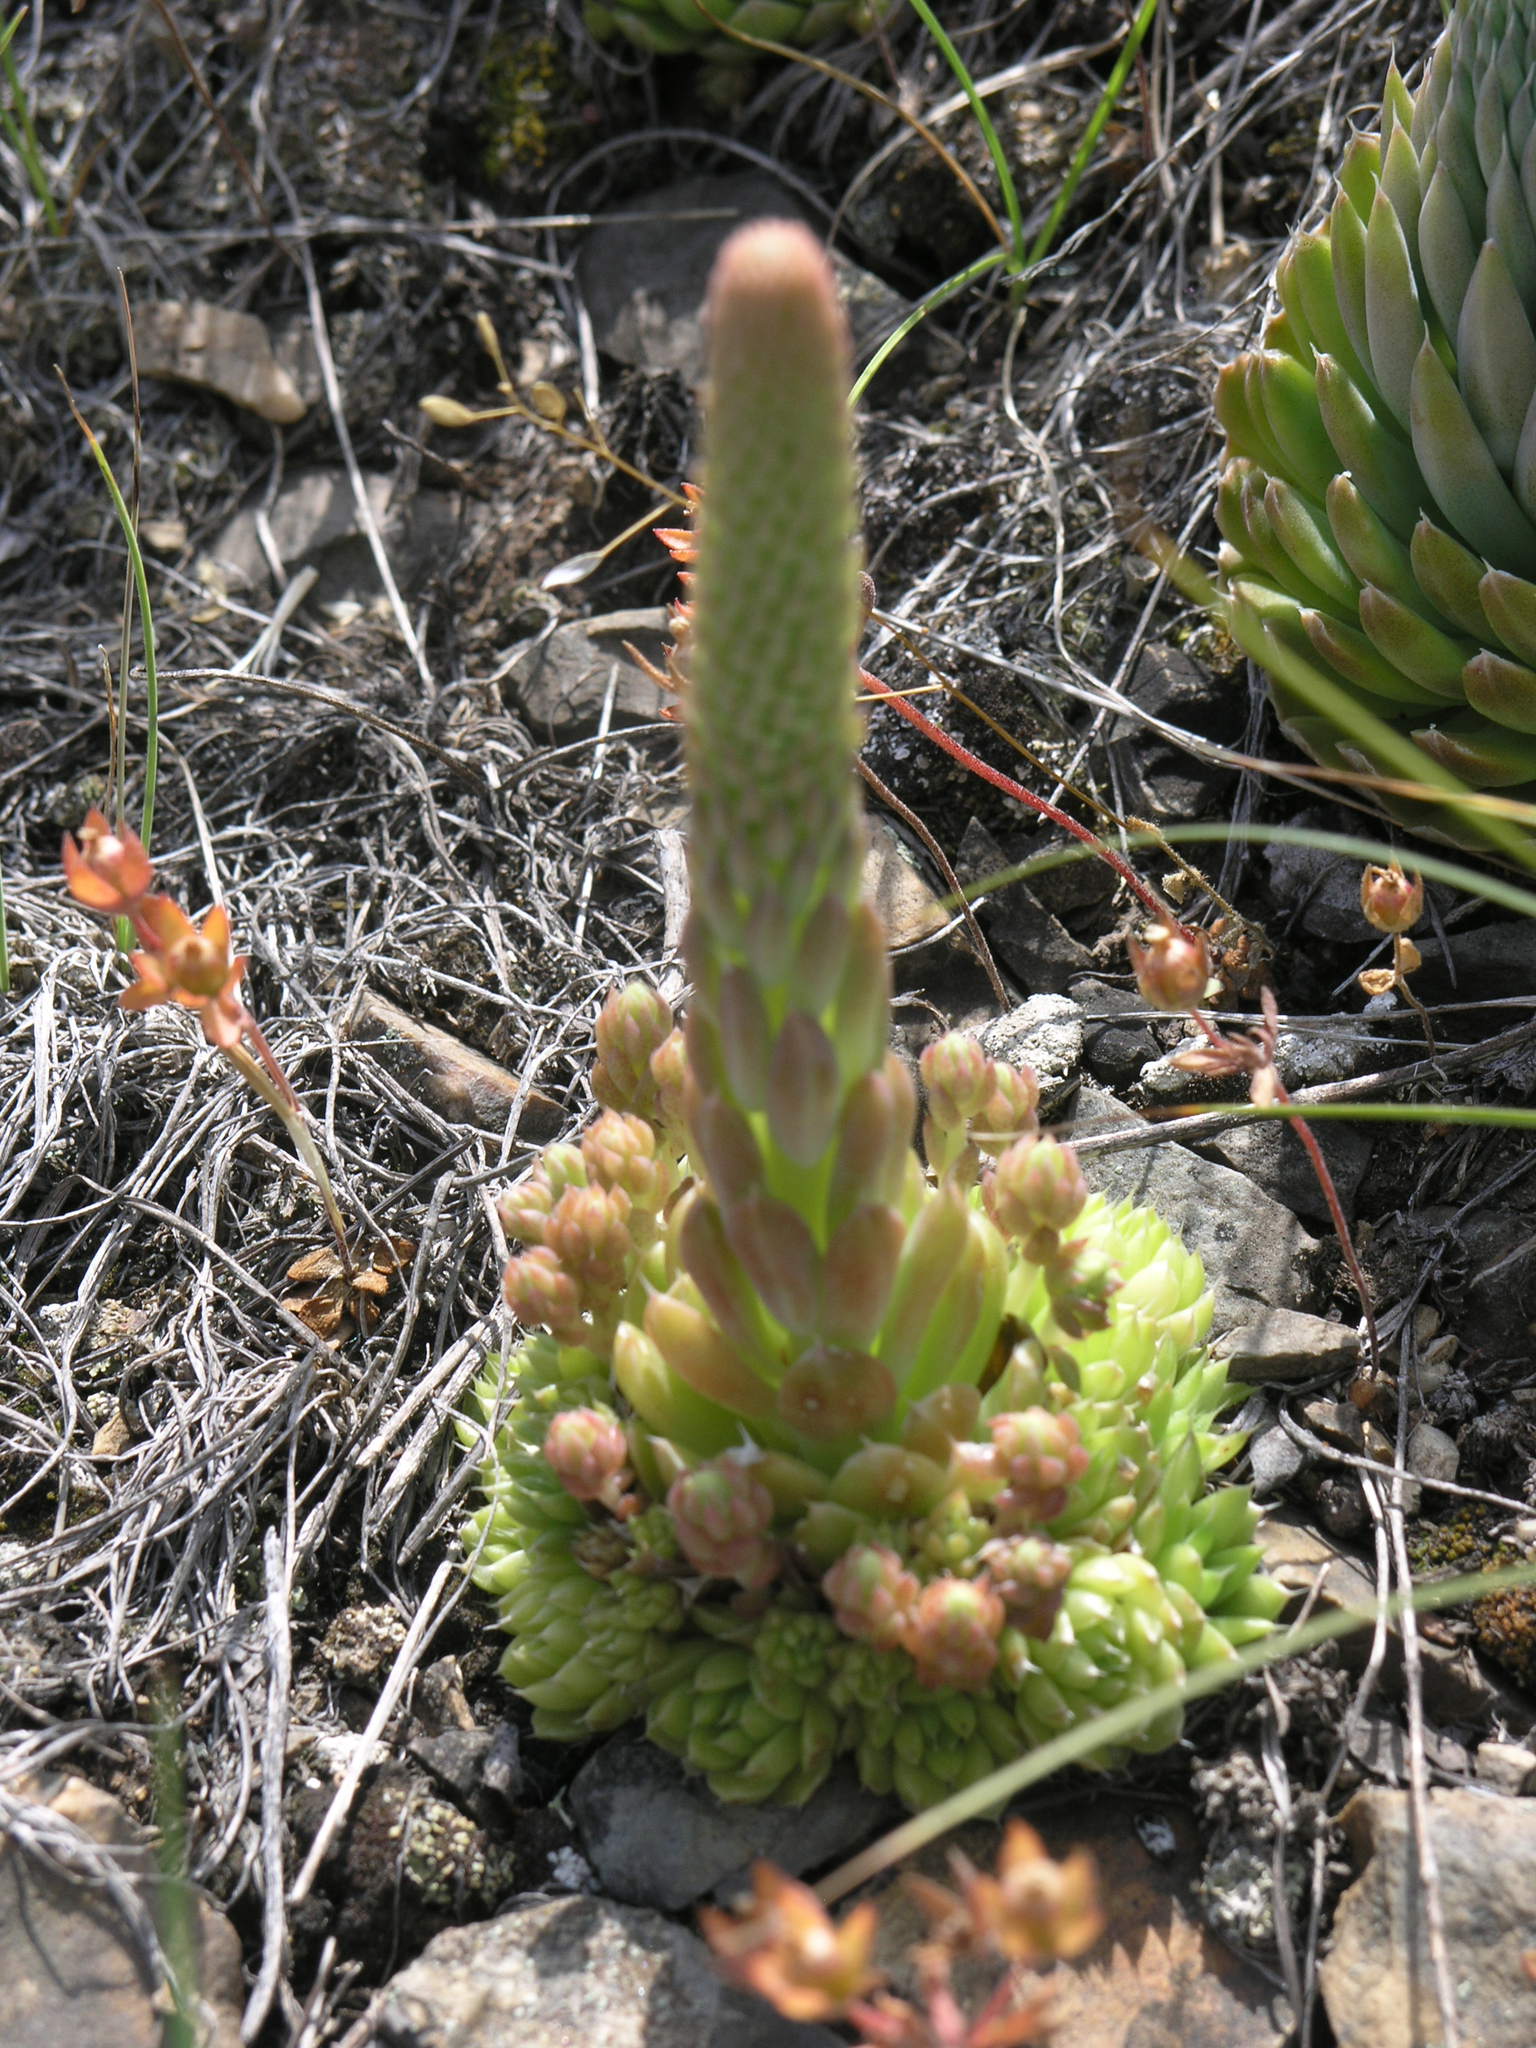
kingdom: Plantae
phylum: Tracheophyta
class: Magnoliopsida
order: Saxifragales
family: Crassulaceae
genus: Orostachys
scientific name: Orostachys spinosa
